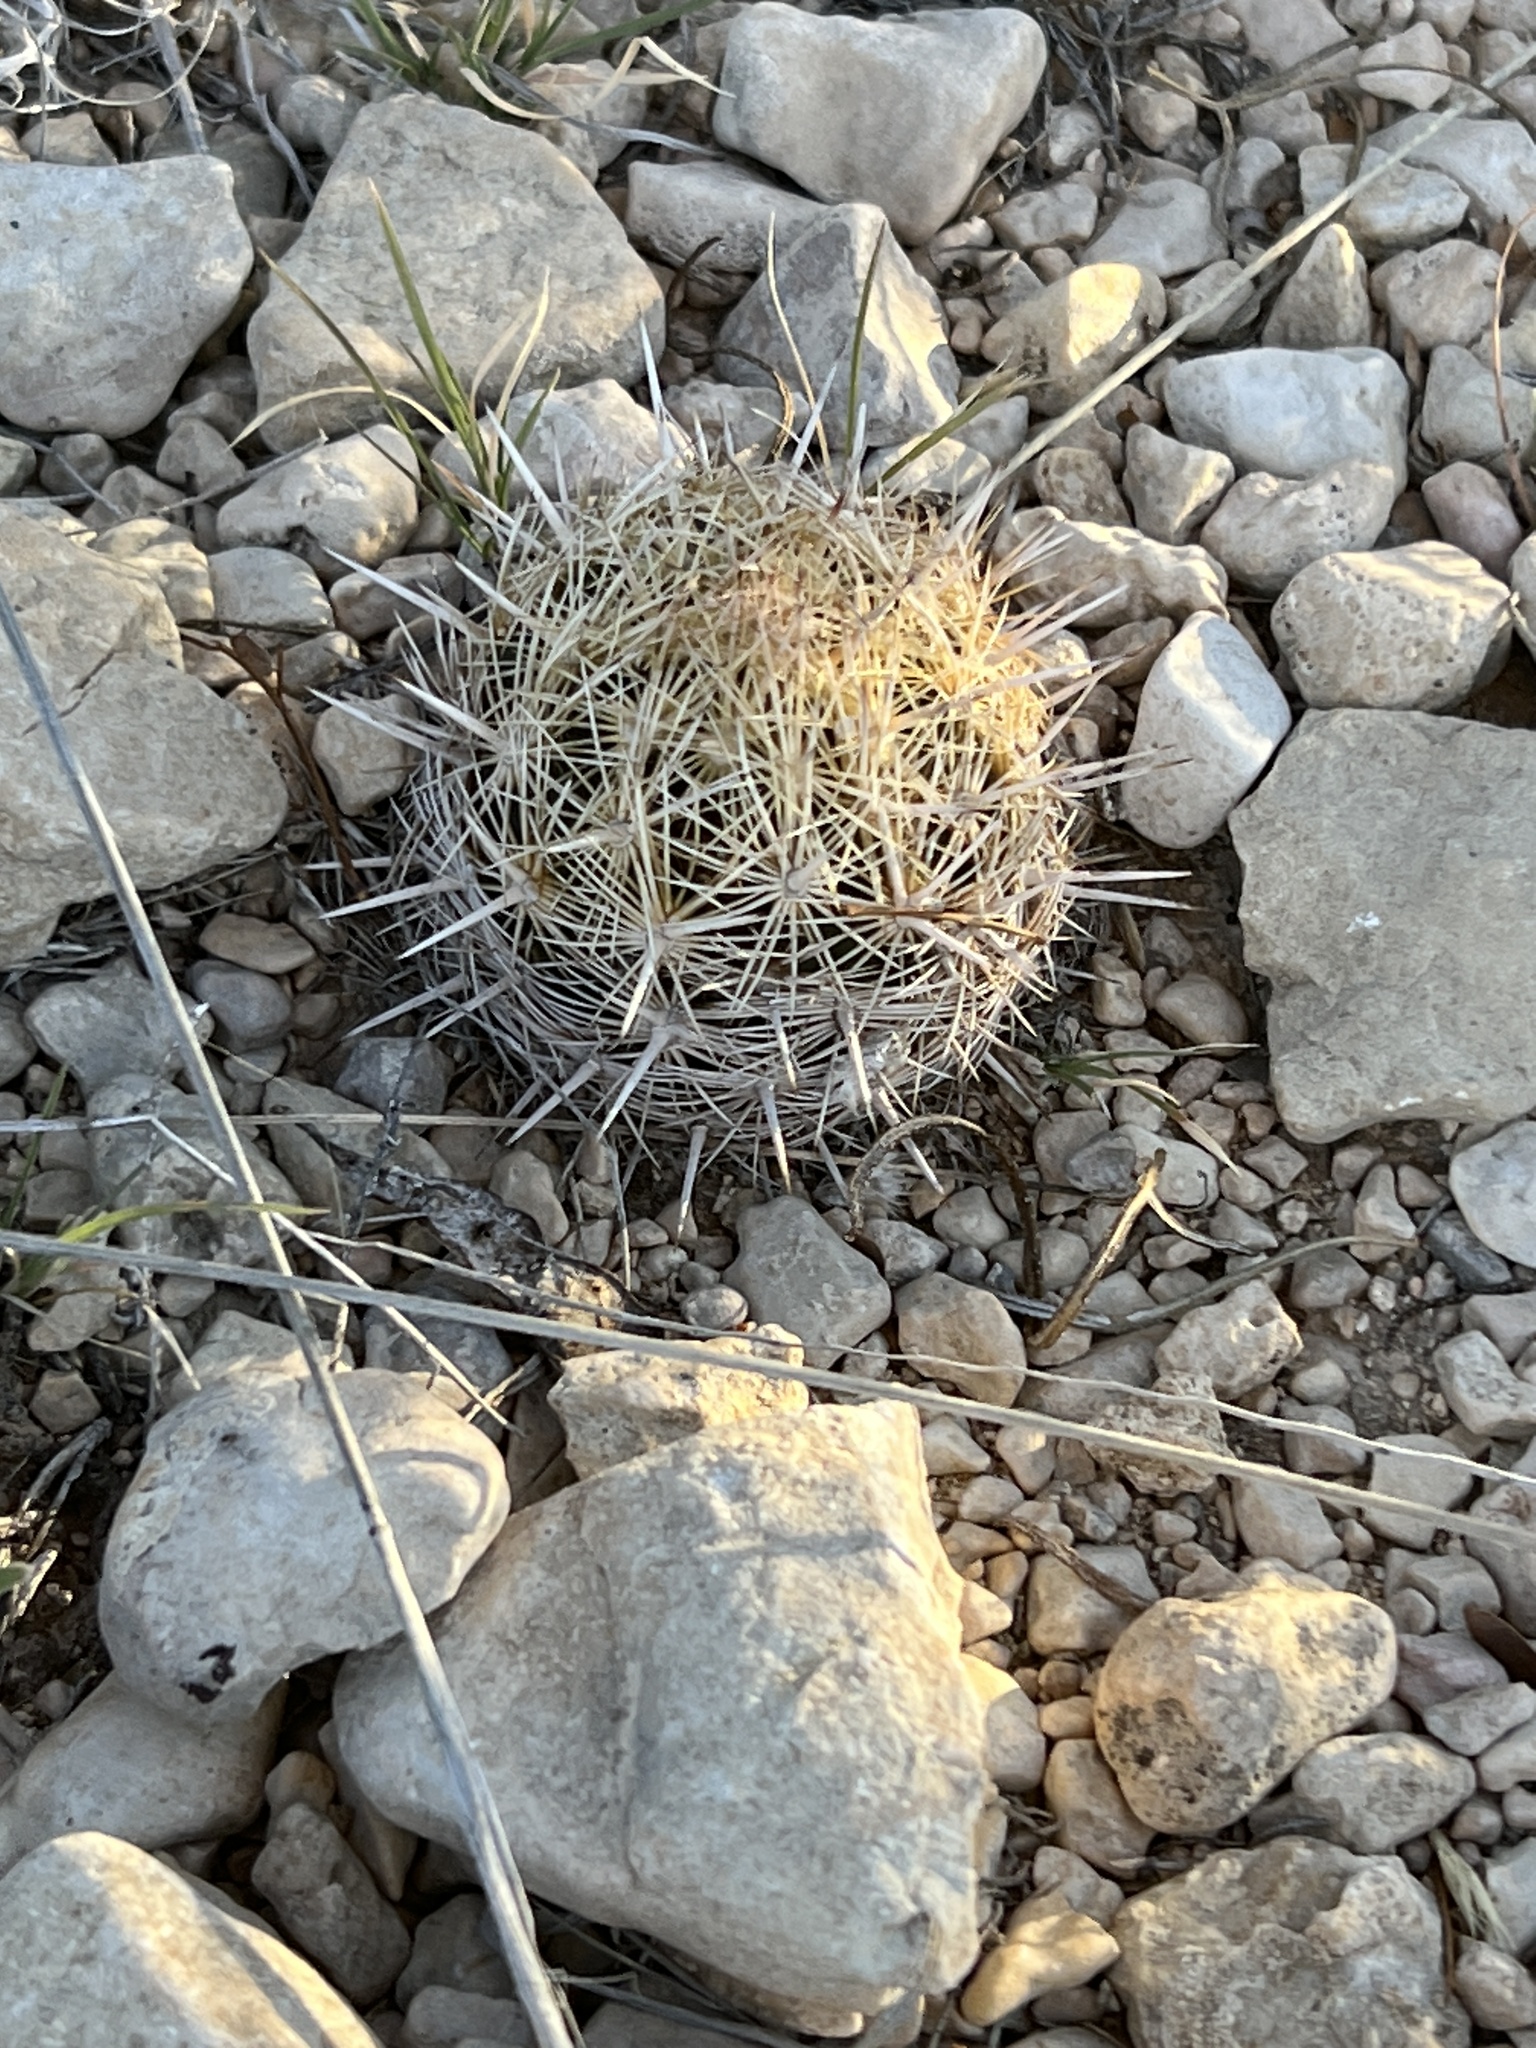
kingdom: Plantae
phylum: Tracheophyta
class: Magnoliopsida
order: Caryophyllales
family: Cactaceae
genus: Coryphantha
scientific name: Coryphantha echinus
